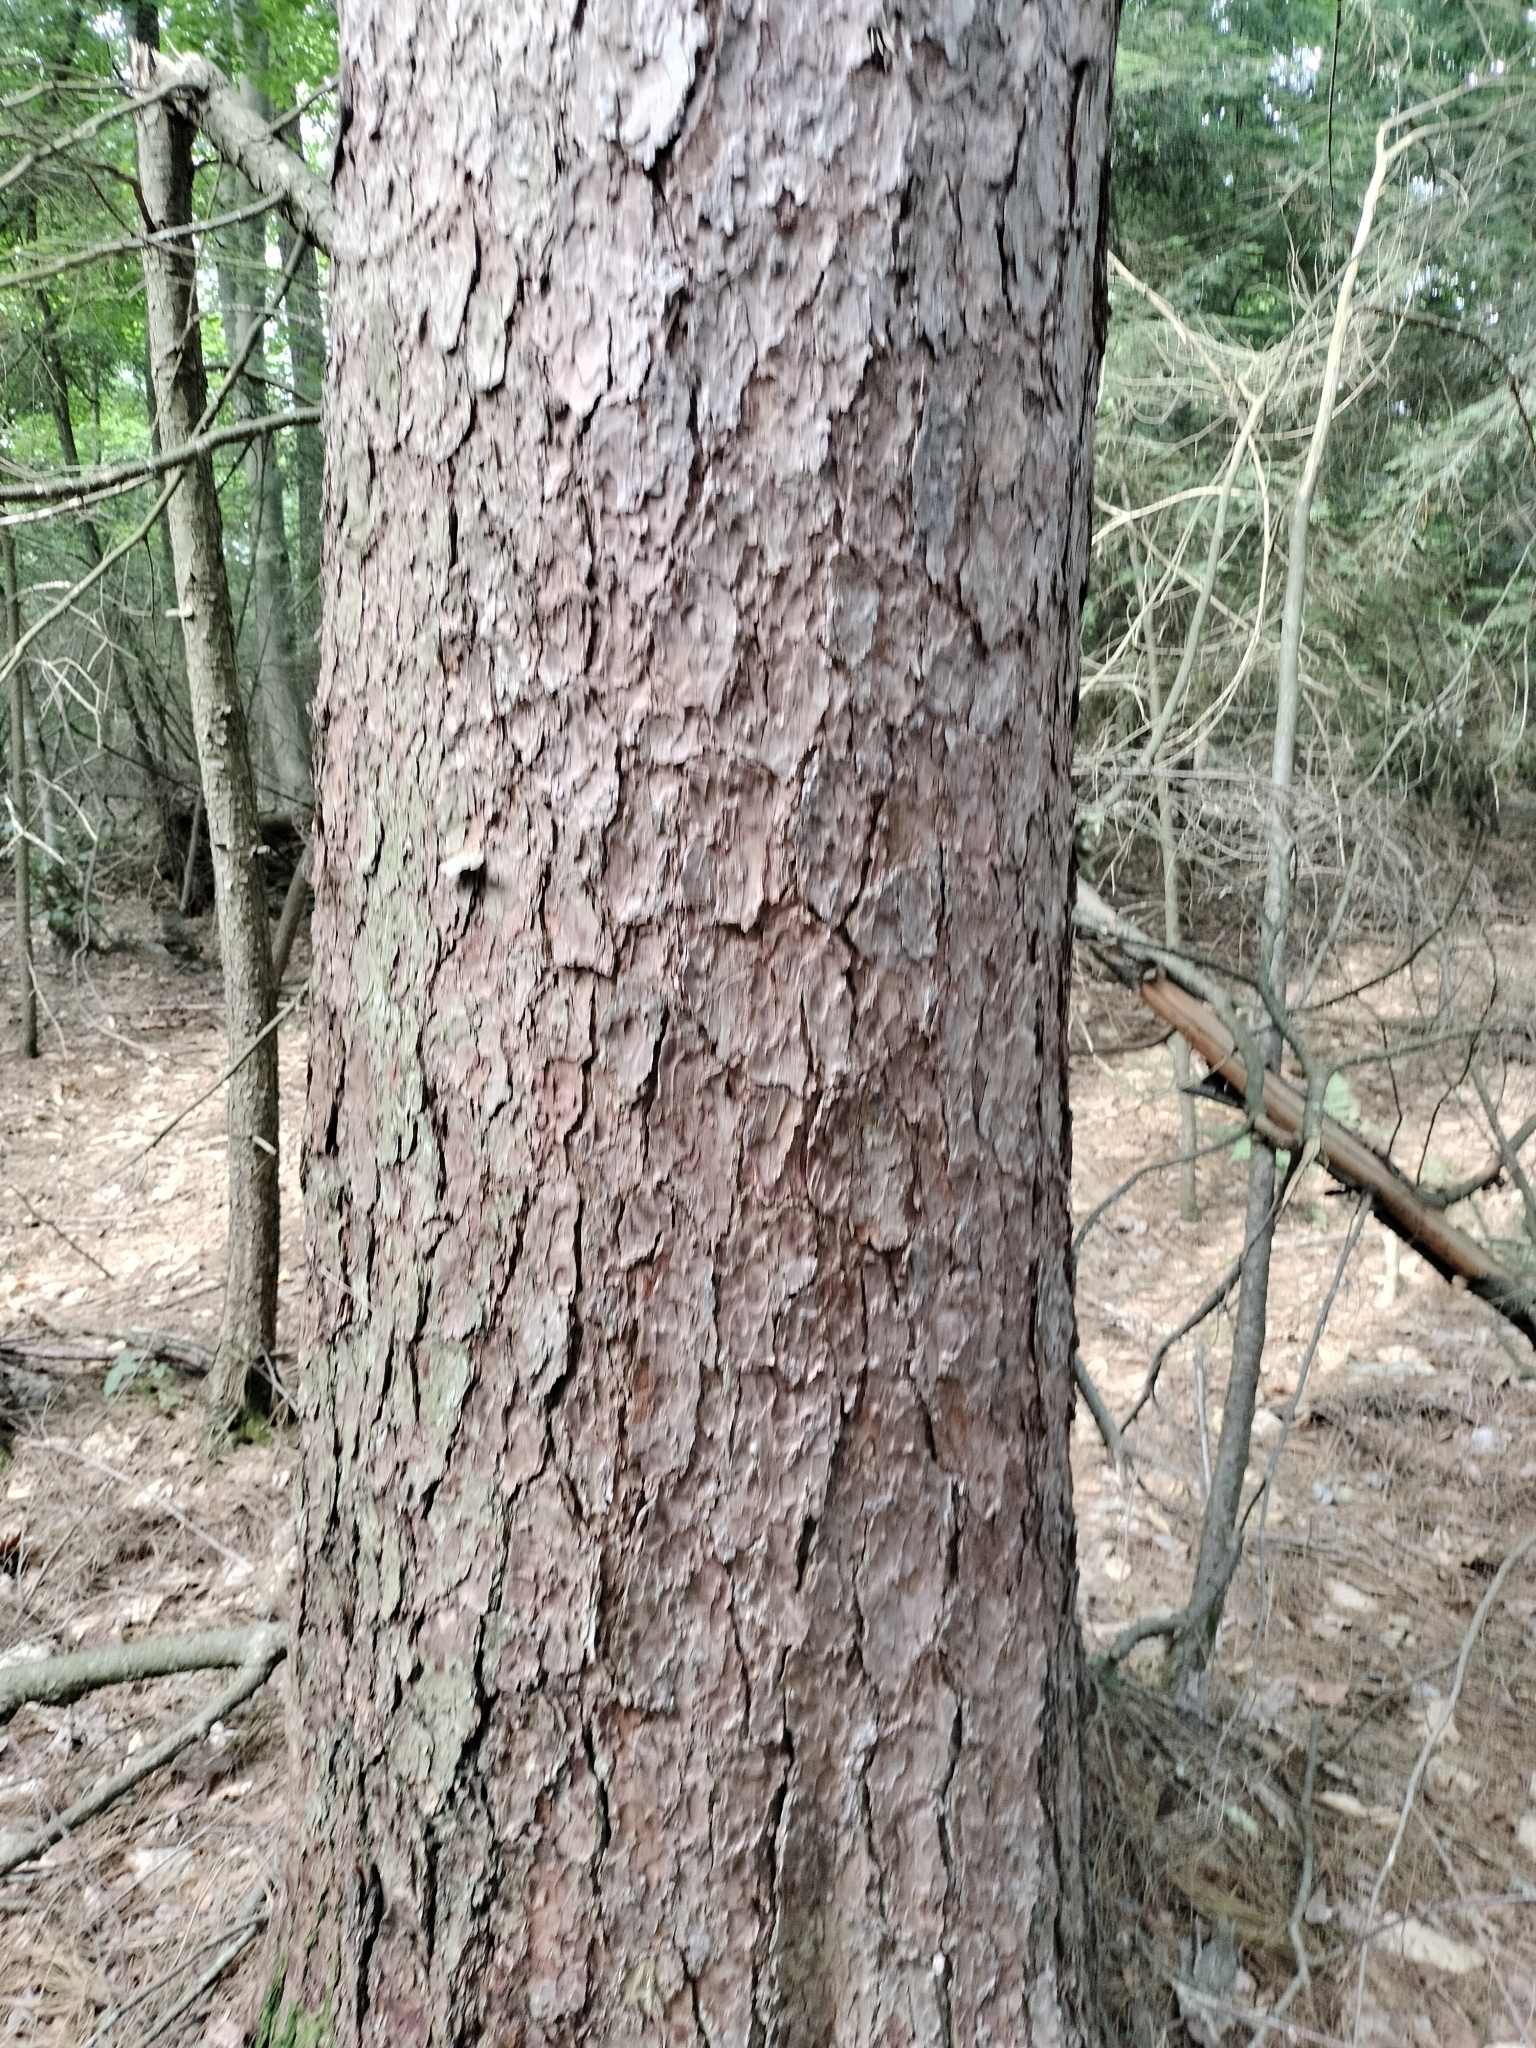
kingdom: Plantae
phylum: Tracheophyta
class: Pinopsida
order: Pinales
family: Pinaceae
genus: Pinus
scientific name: Pinus resinosa
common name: Norway pine
